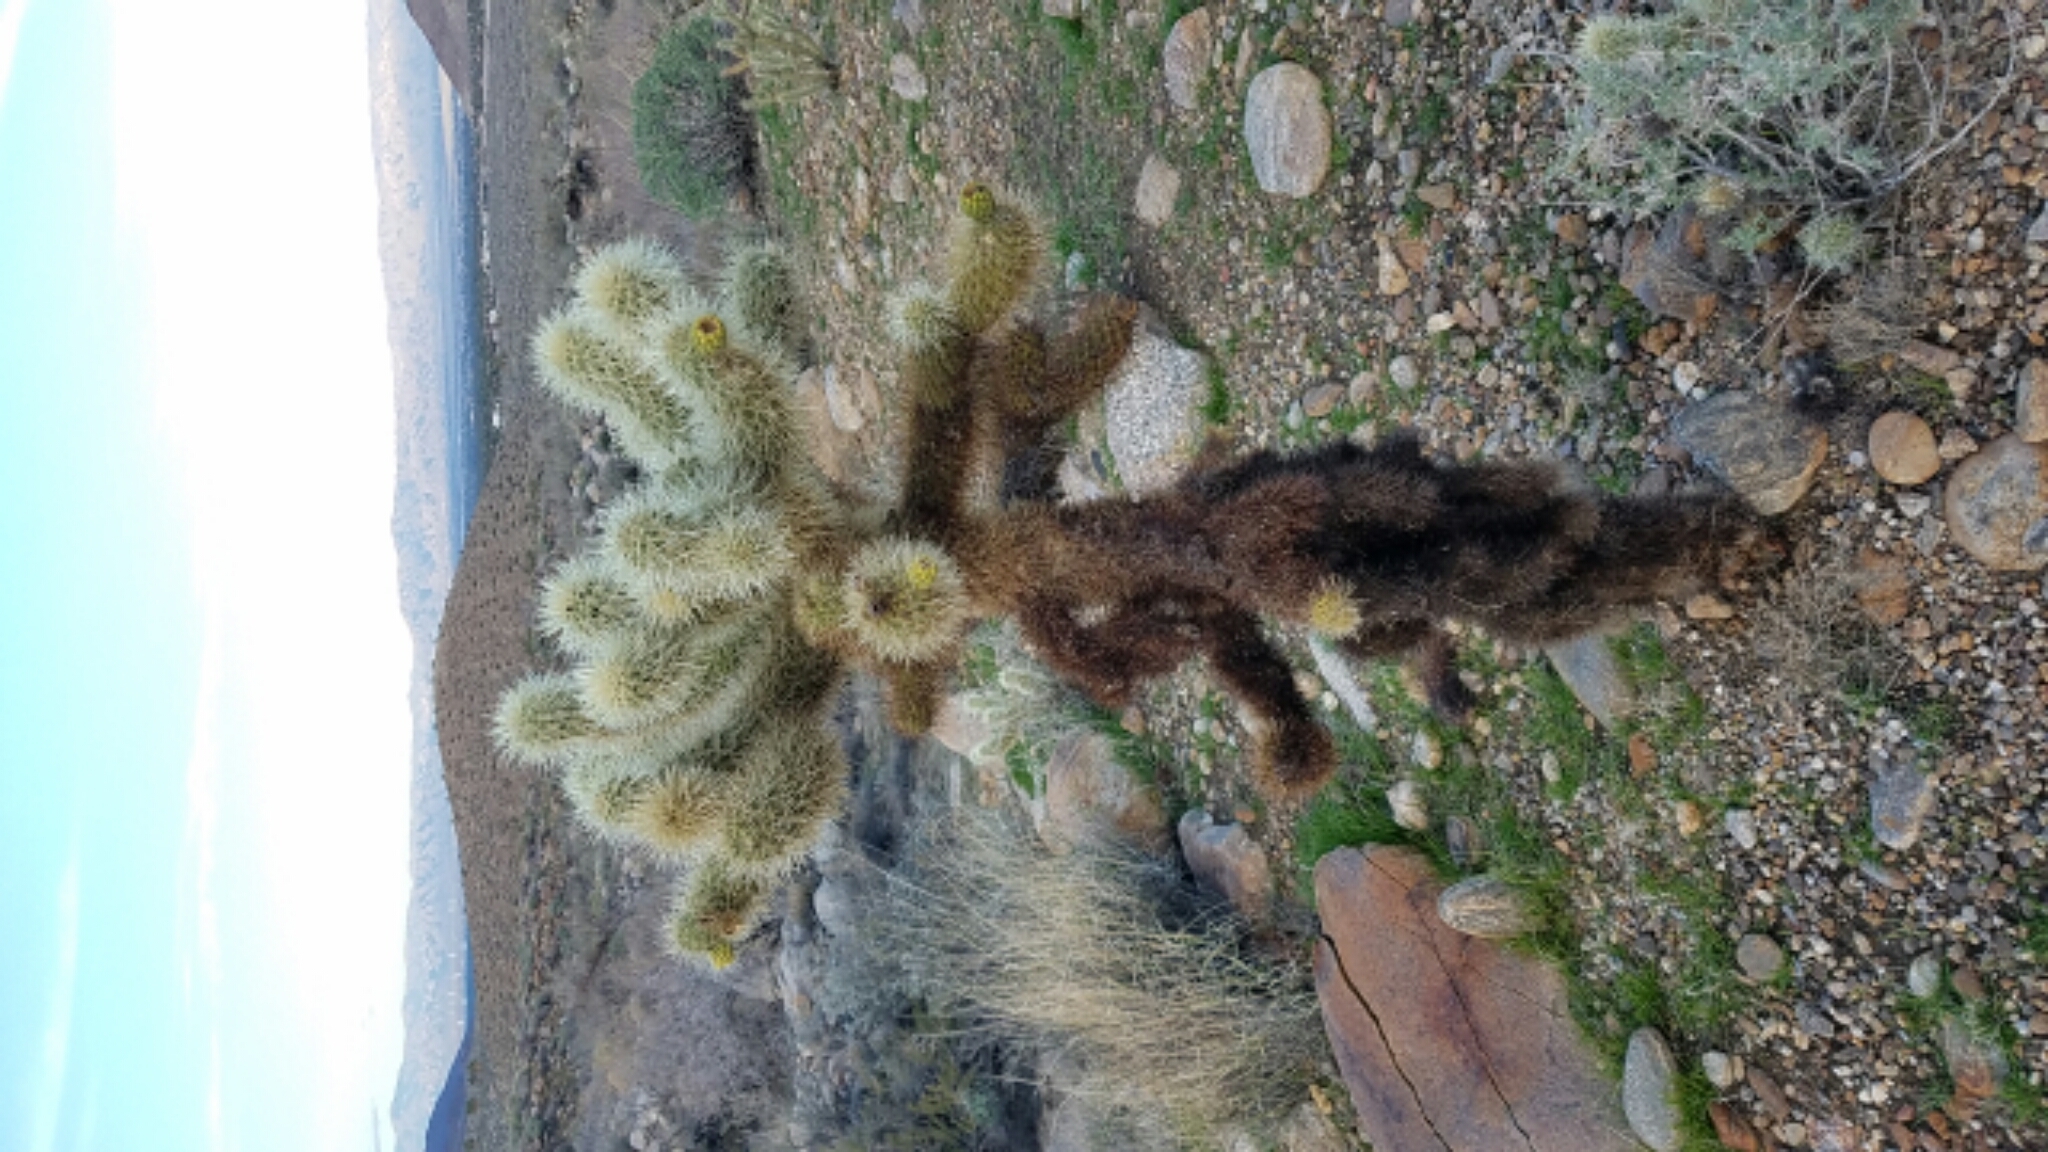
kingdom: Plantae
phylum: Tracheophyta
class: Magnoliopsida
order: Caryophyllales
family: Cactaceae
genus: Cylindropuntia
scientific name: Cylindropuntia fosbergii
